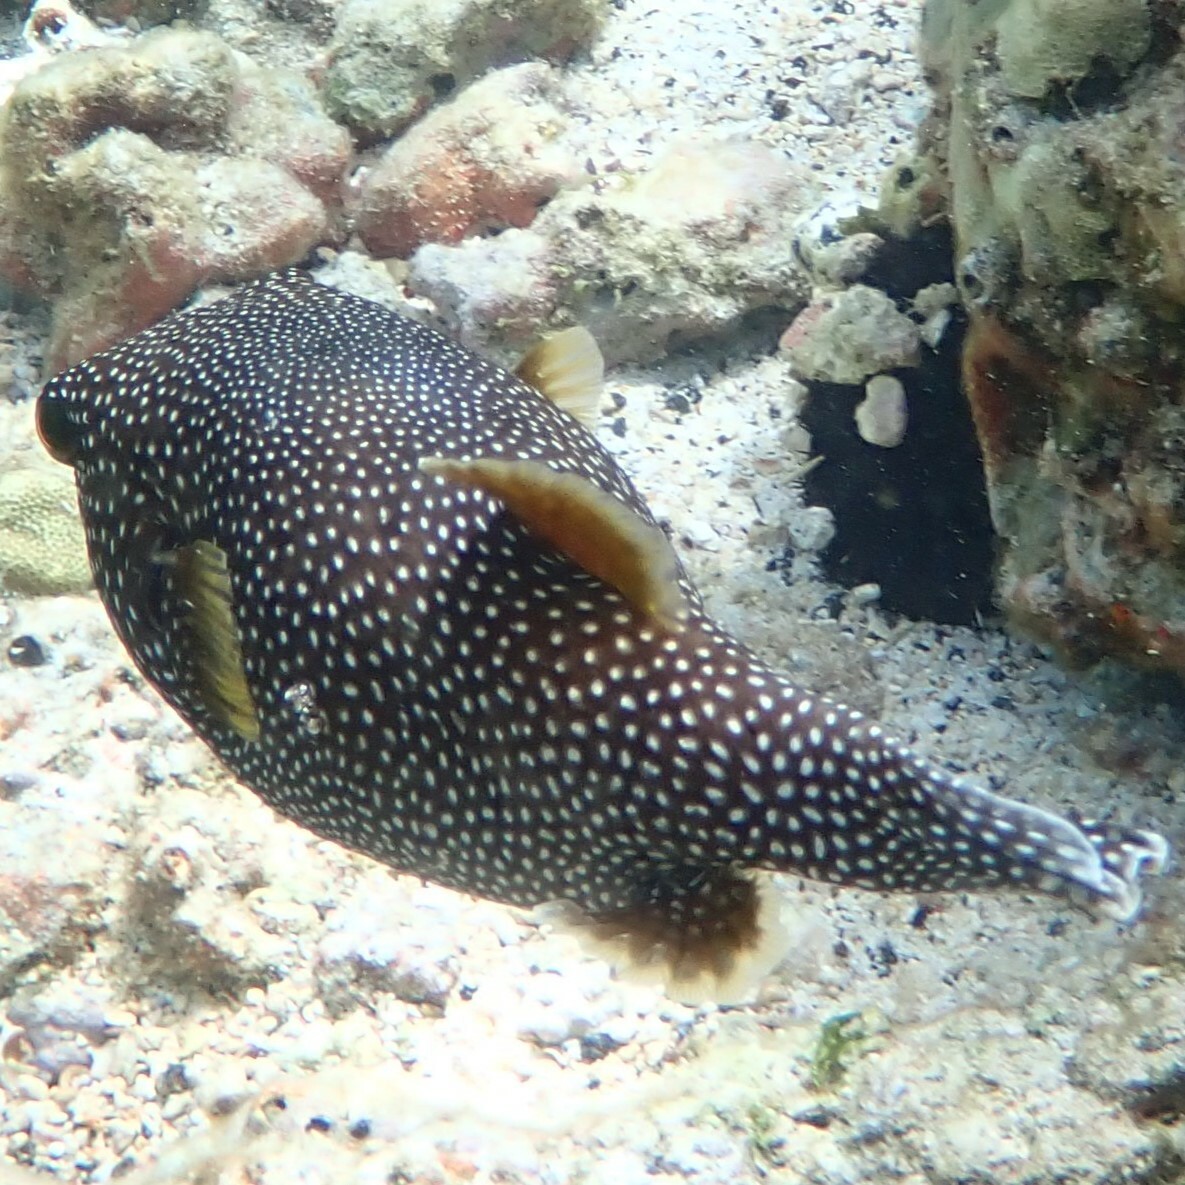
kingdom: Animalia
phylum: Chordata
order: Tetraodontiformes
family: Tetraodontidae
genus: Arothron
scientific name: Arothron meleagris
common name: Guinea-fowl pufferfish
